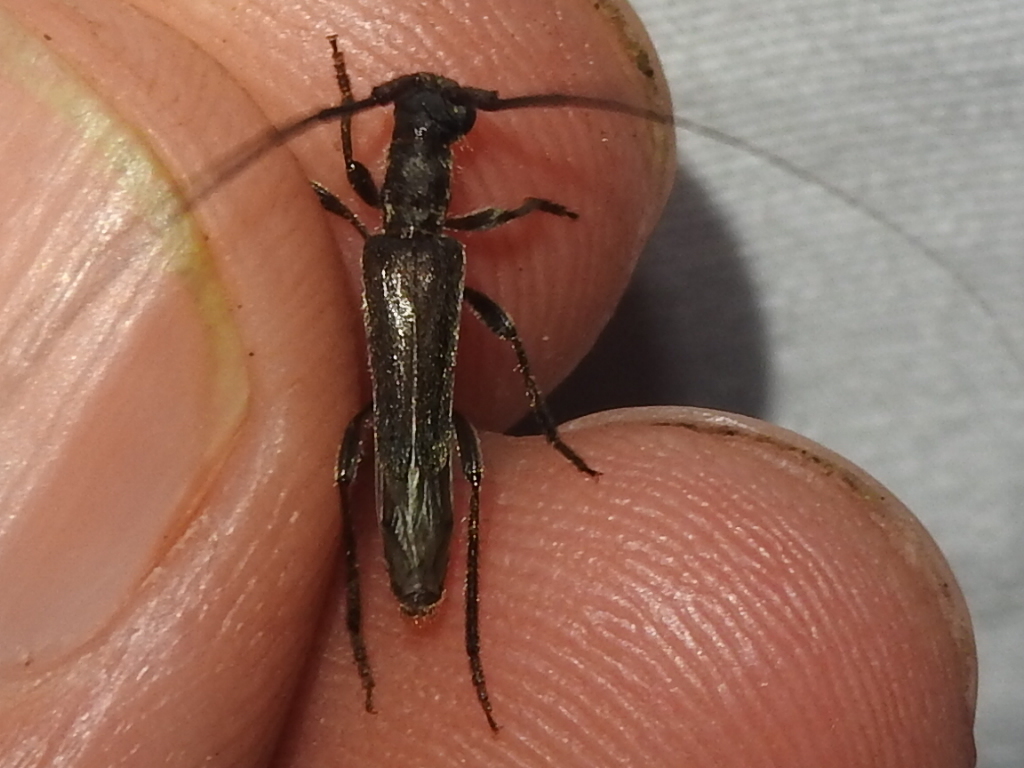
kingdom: Animalia
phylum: Arthropoda
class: Insecta
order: Coleoptera
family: Cerambycidae
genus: Styloxus
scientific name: Styloxus oblatipilis
